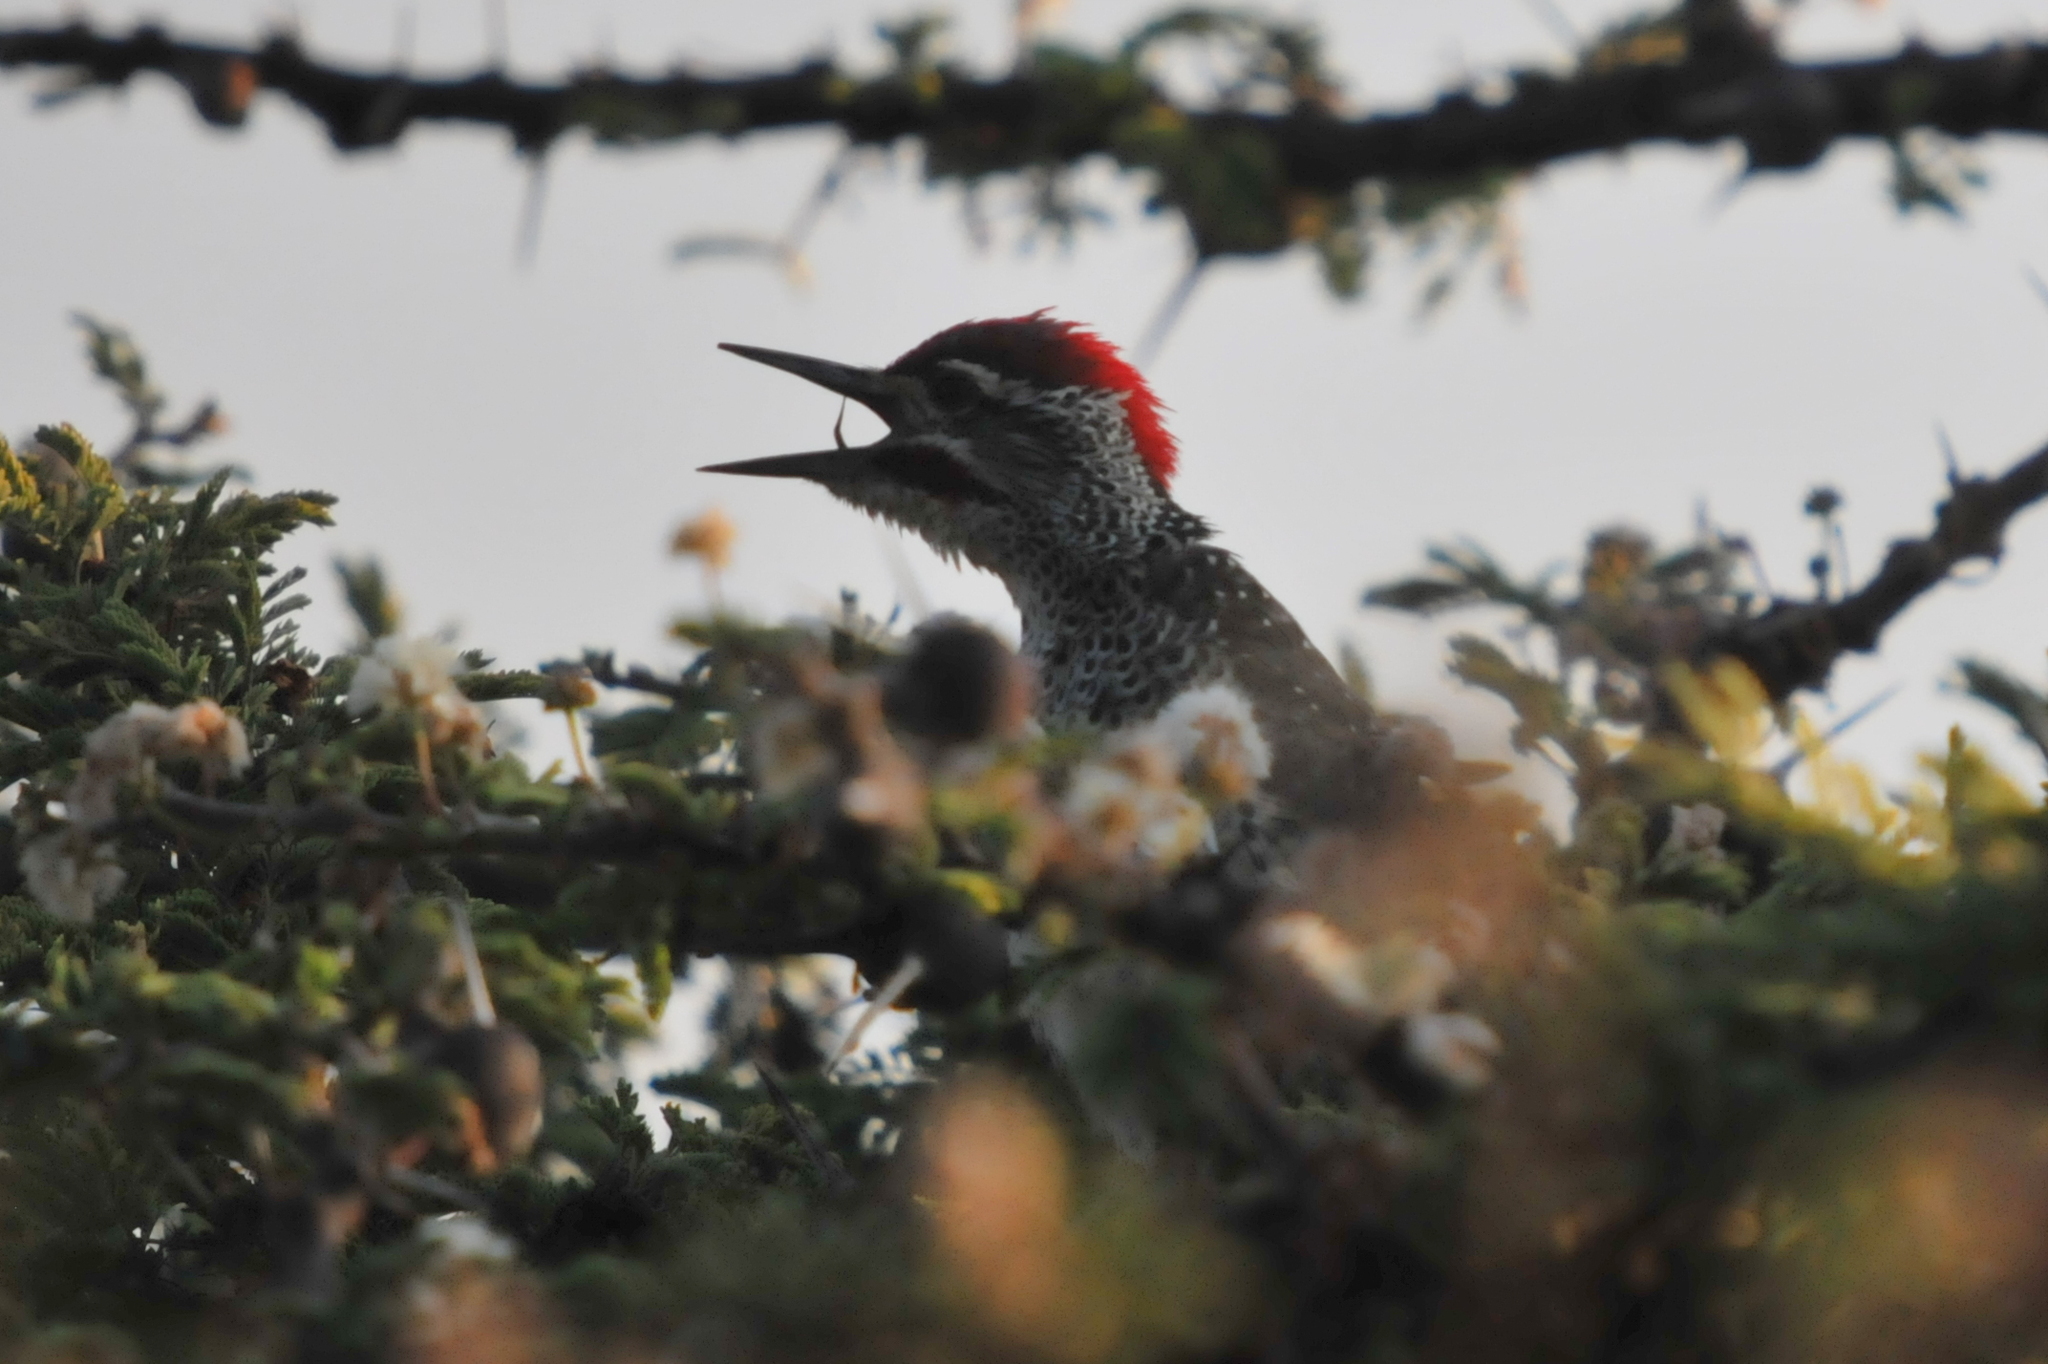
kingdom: Animalia
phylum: Chordata
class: Aves
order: Piciformes
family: Picidae
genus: Campethera
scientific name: Campethera nubica
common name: Nubian woodpecker
